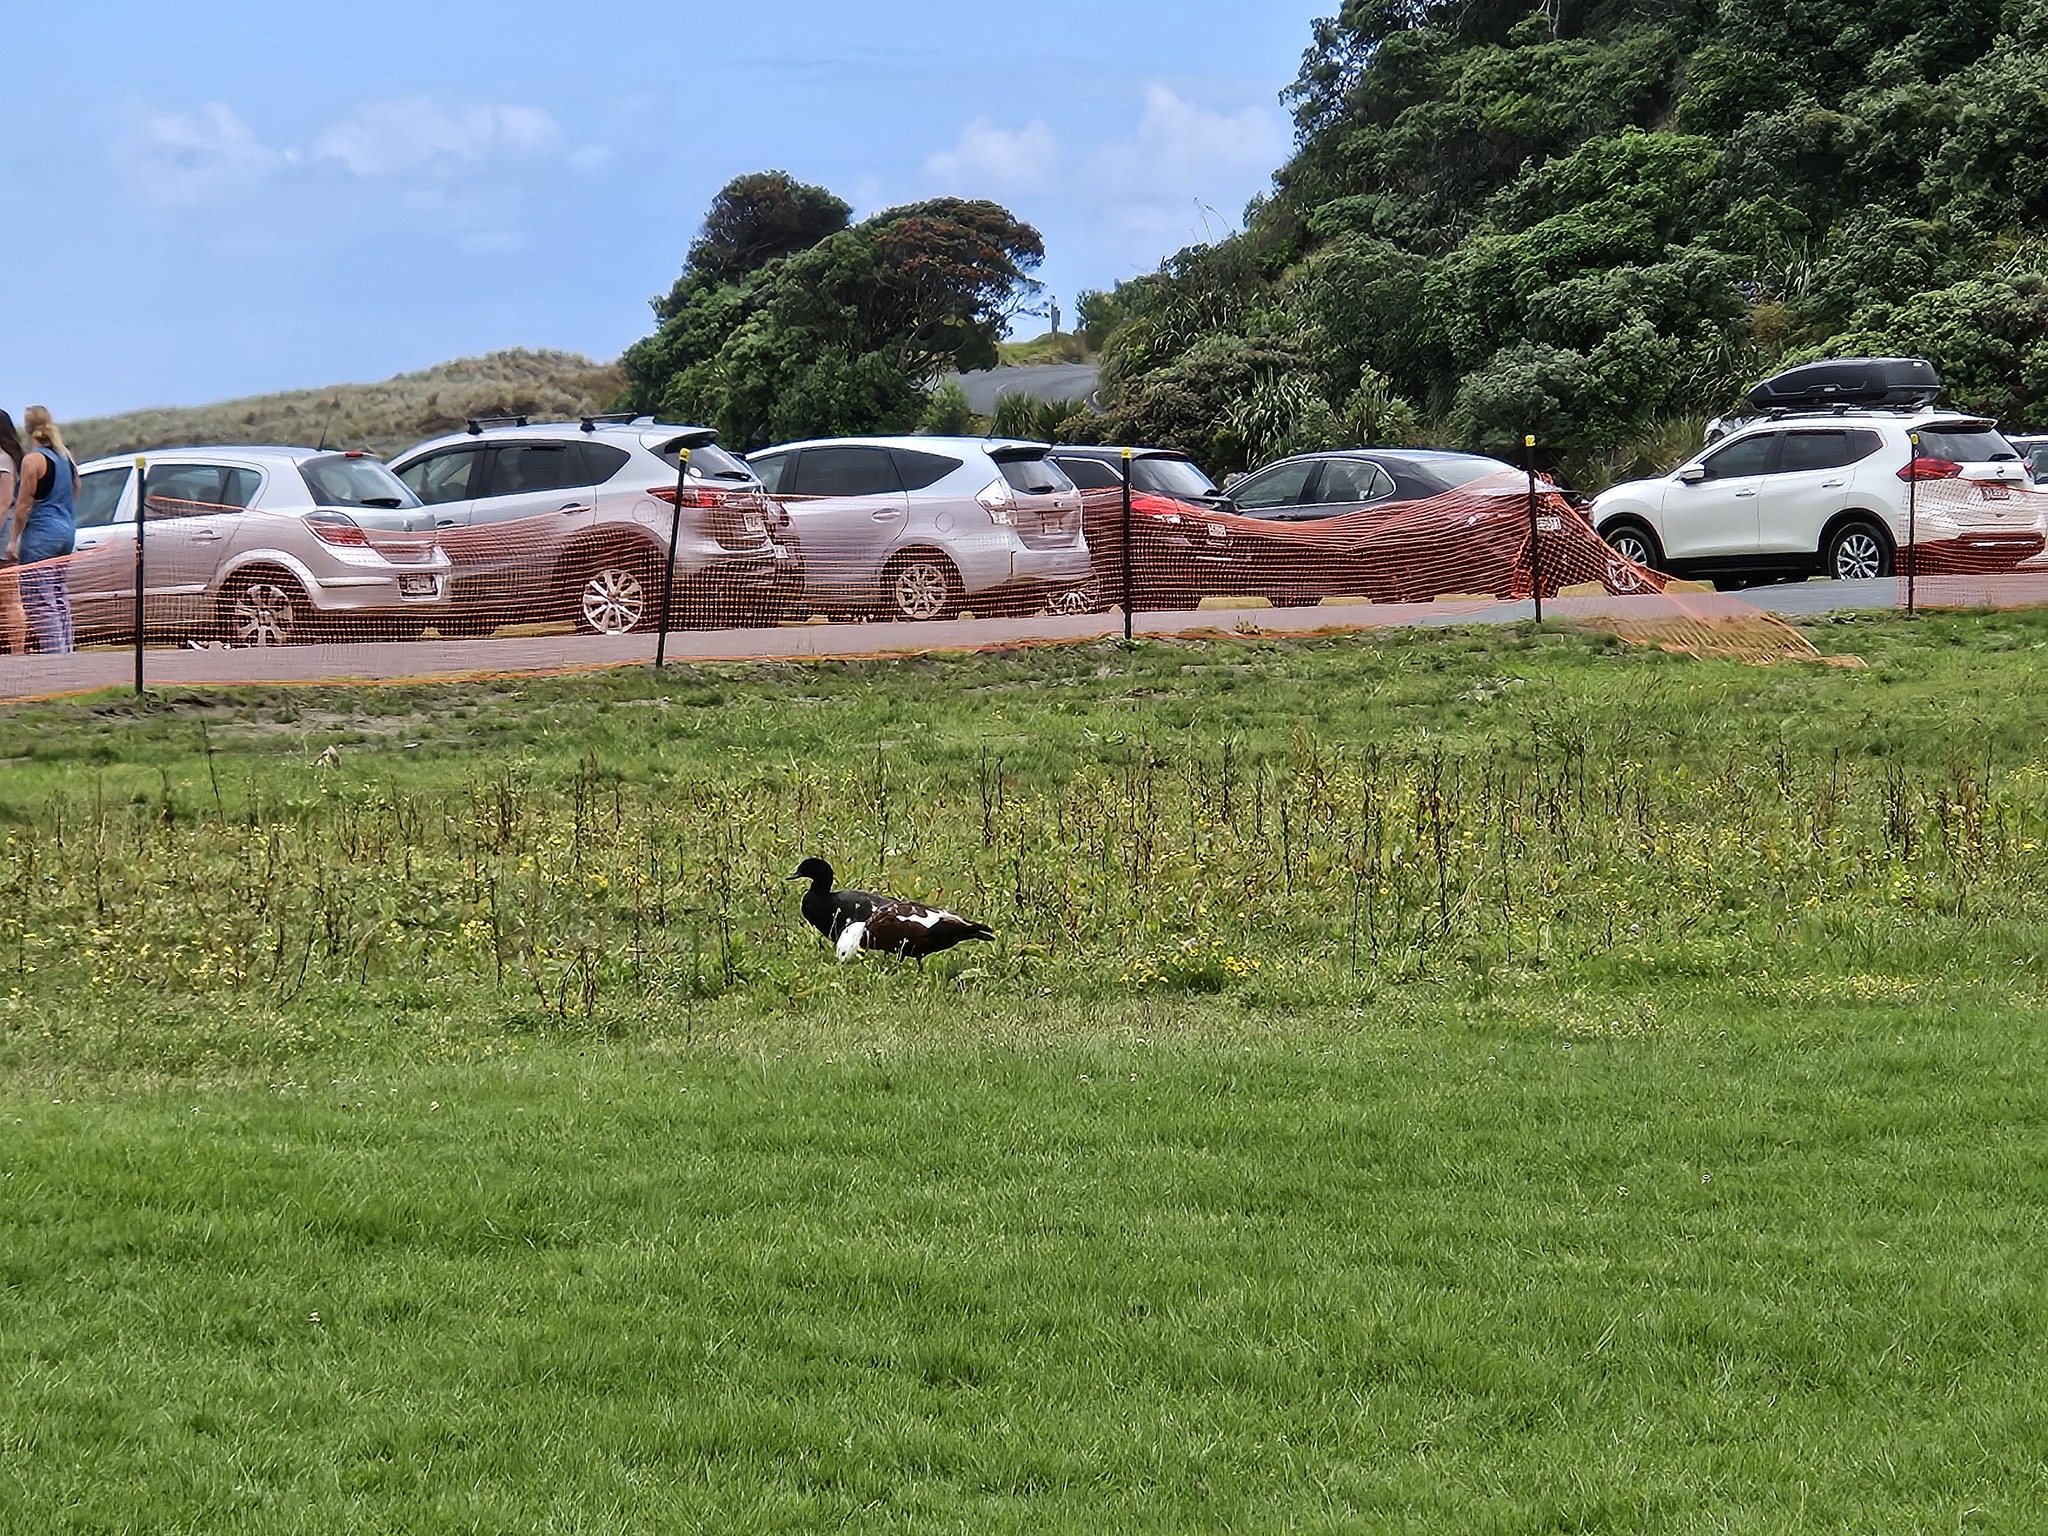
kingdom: Animalia
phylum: Chordata
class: Aves
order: Anseriformes
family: Anatidae
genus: Tadorna
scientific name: Tadorna variegata
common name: Paradise shelduck
